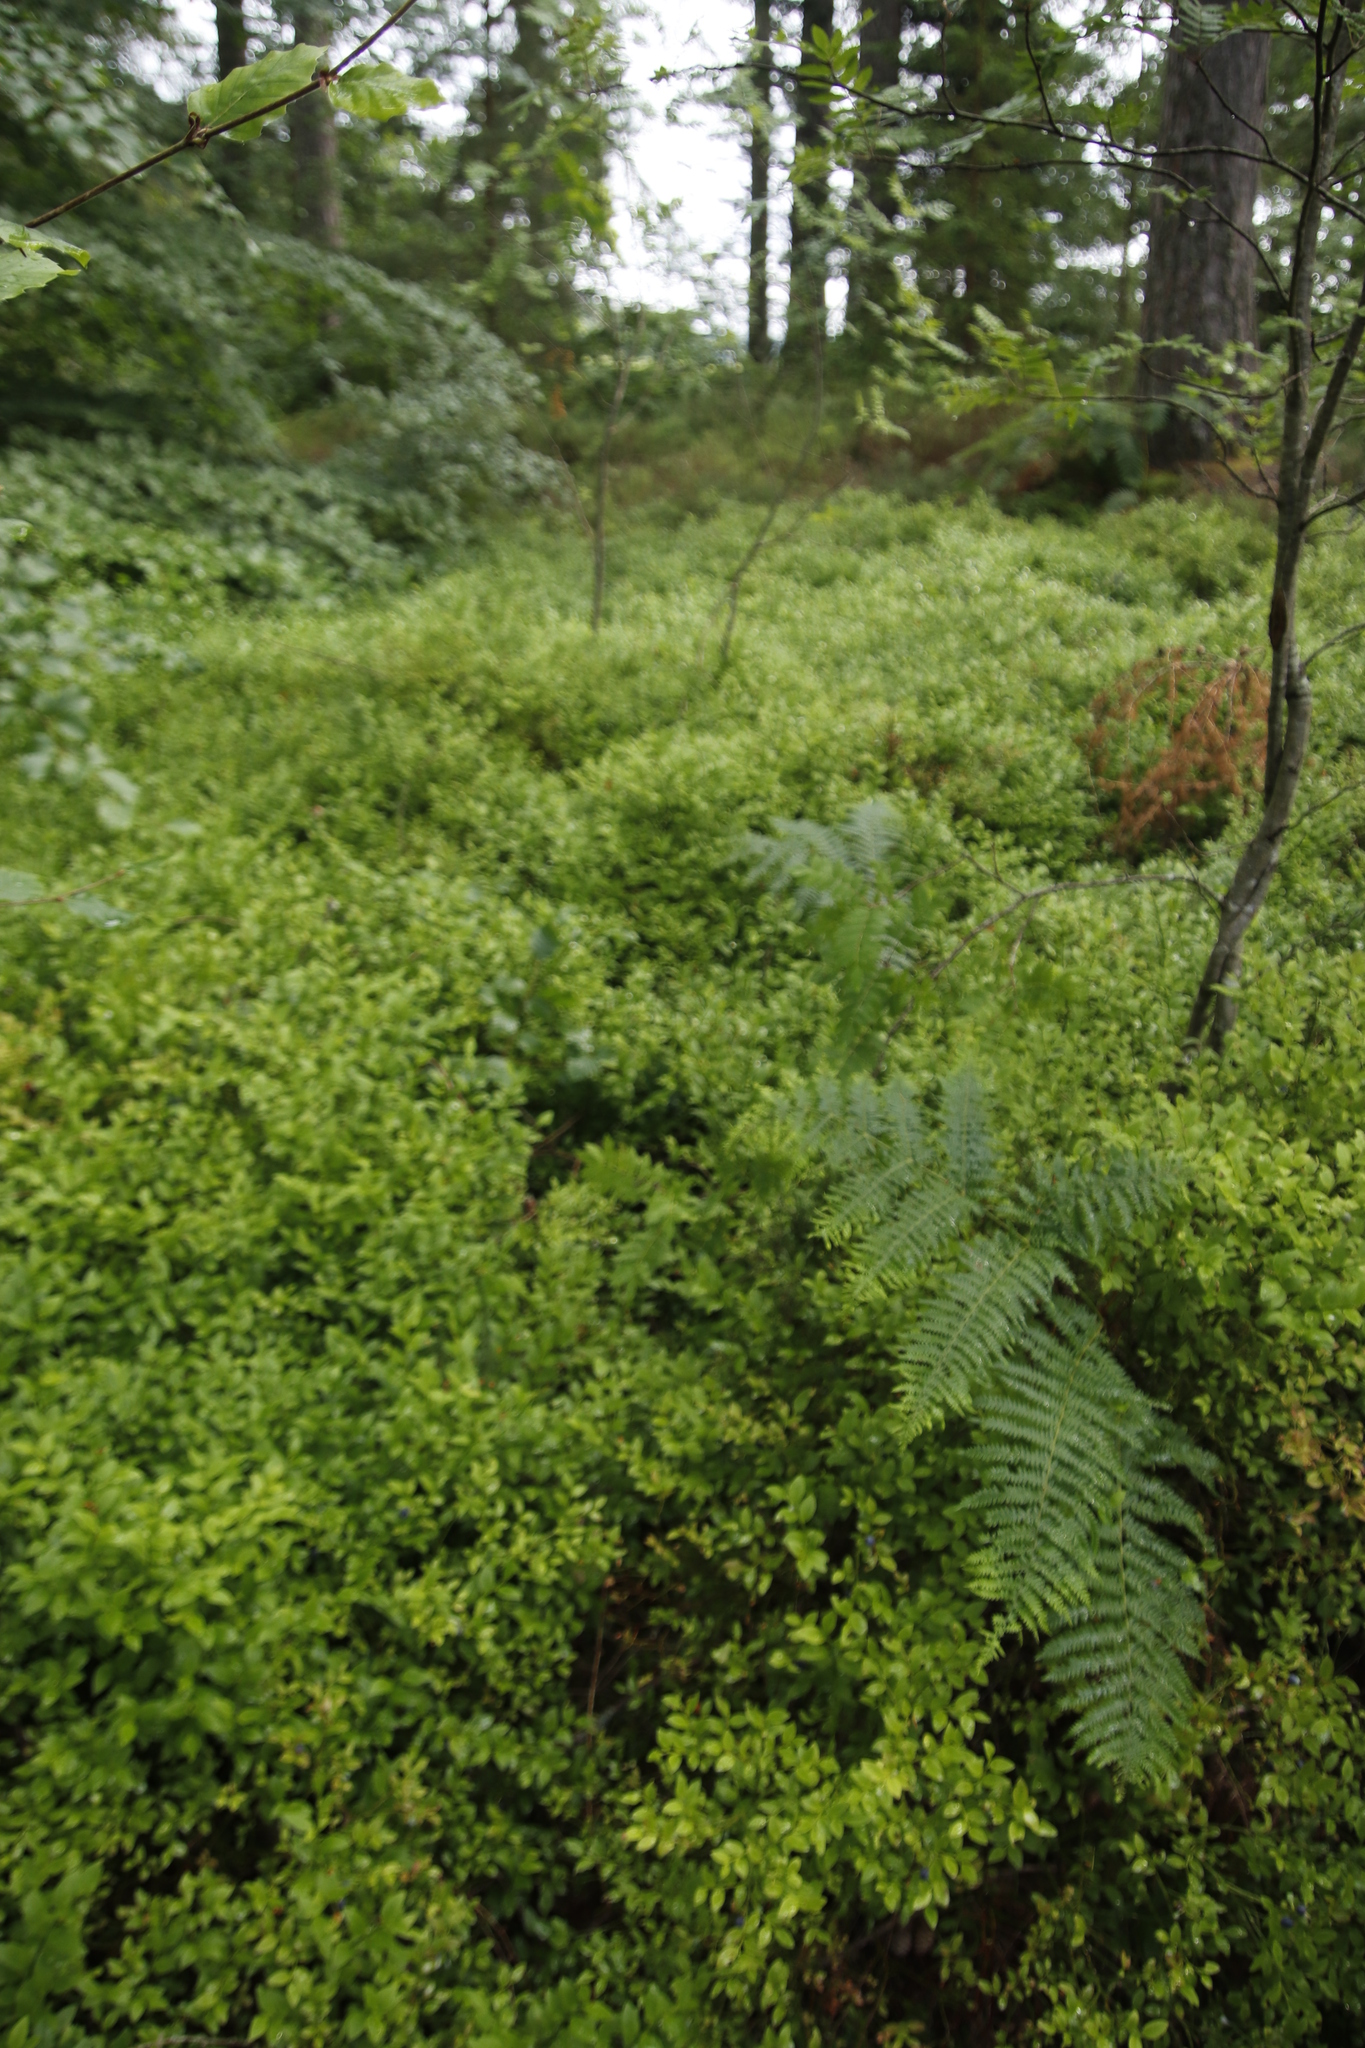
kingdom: Plantae
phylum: Tracheophyta
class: Magnoliopsida
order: Ericales
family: Ericaceae
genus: Vaccinium
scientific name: Vaccinium myrtillus
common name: Bilberry
